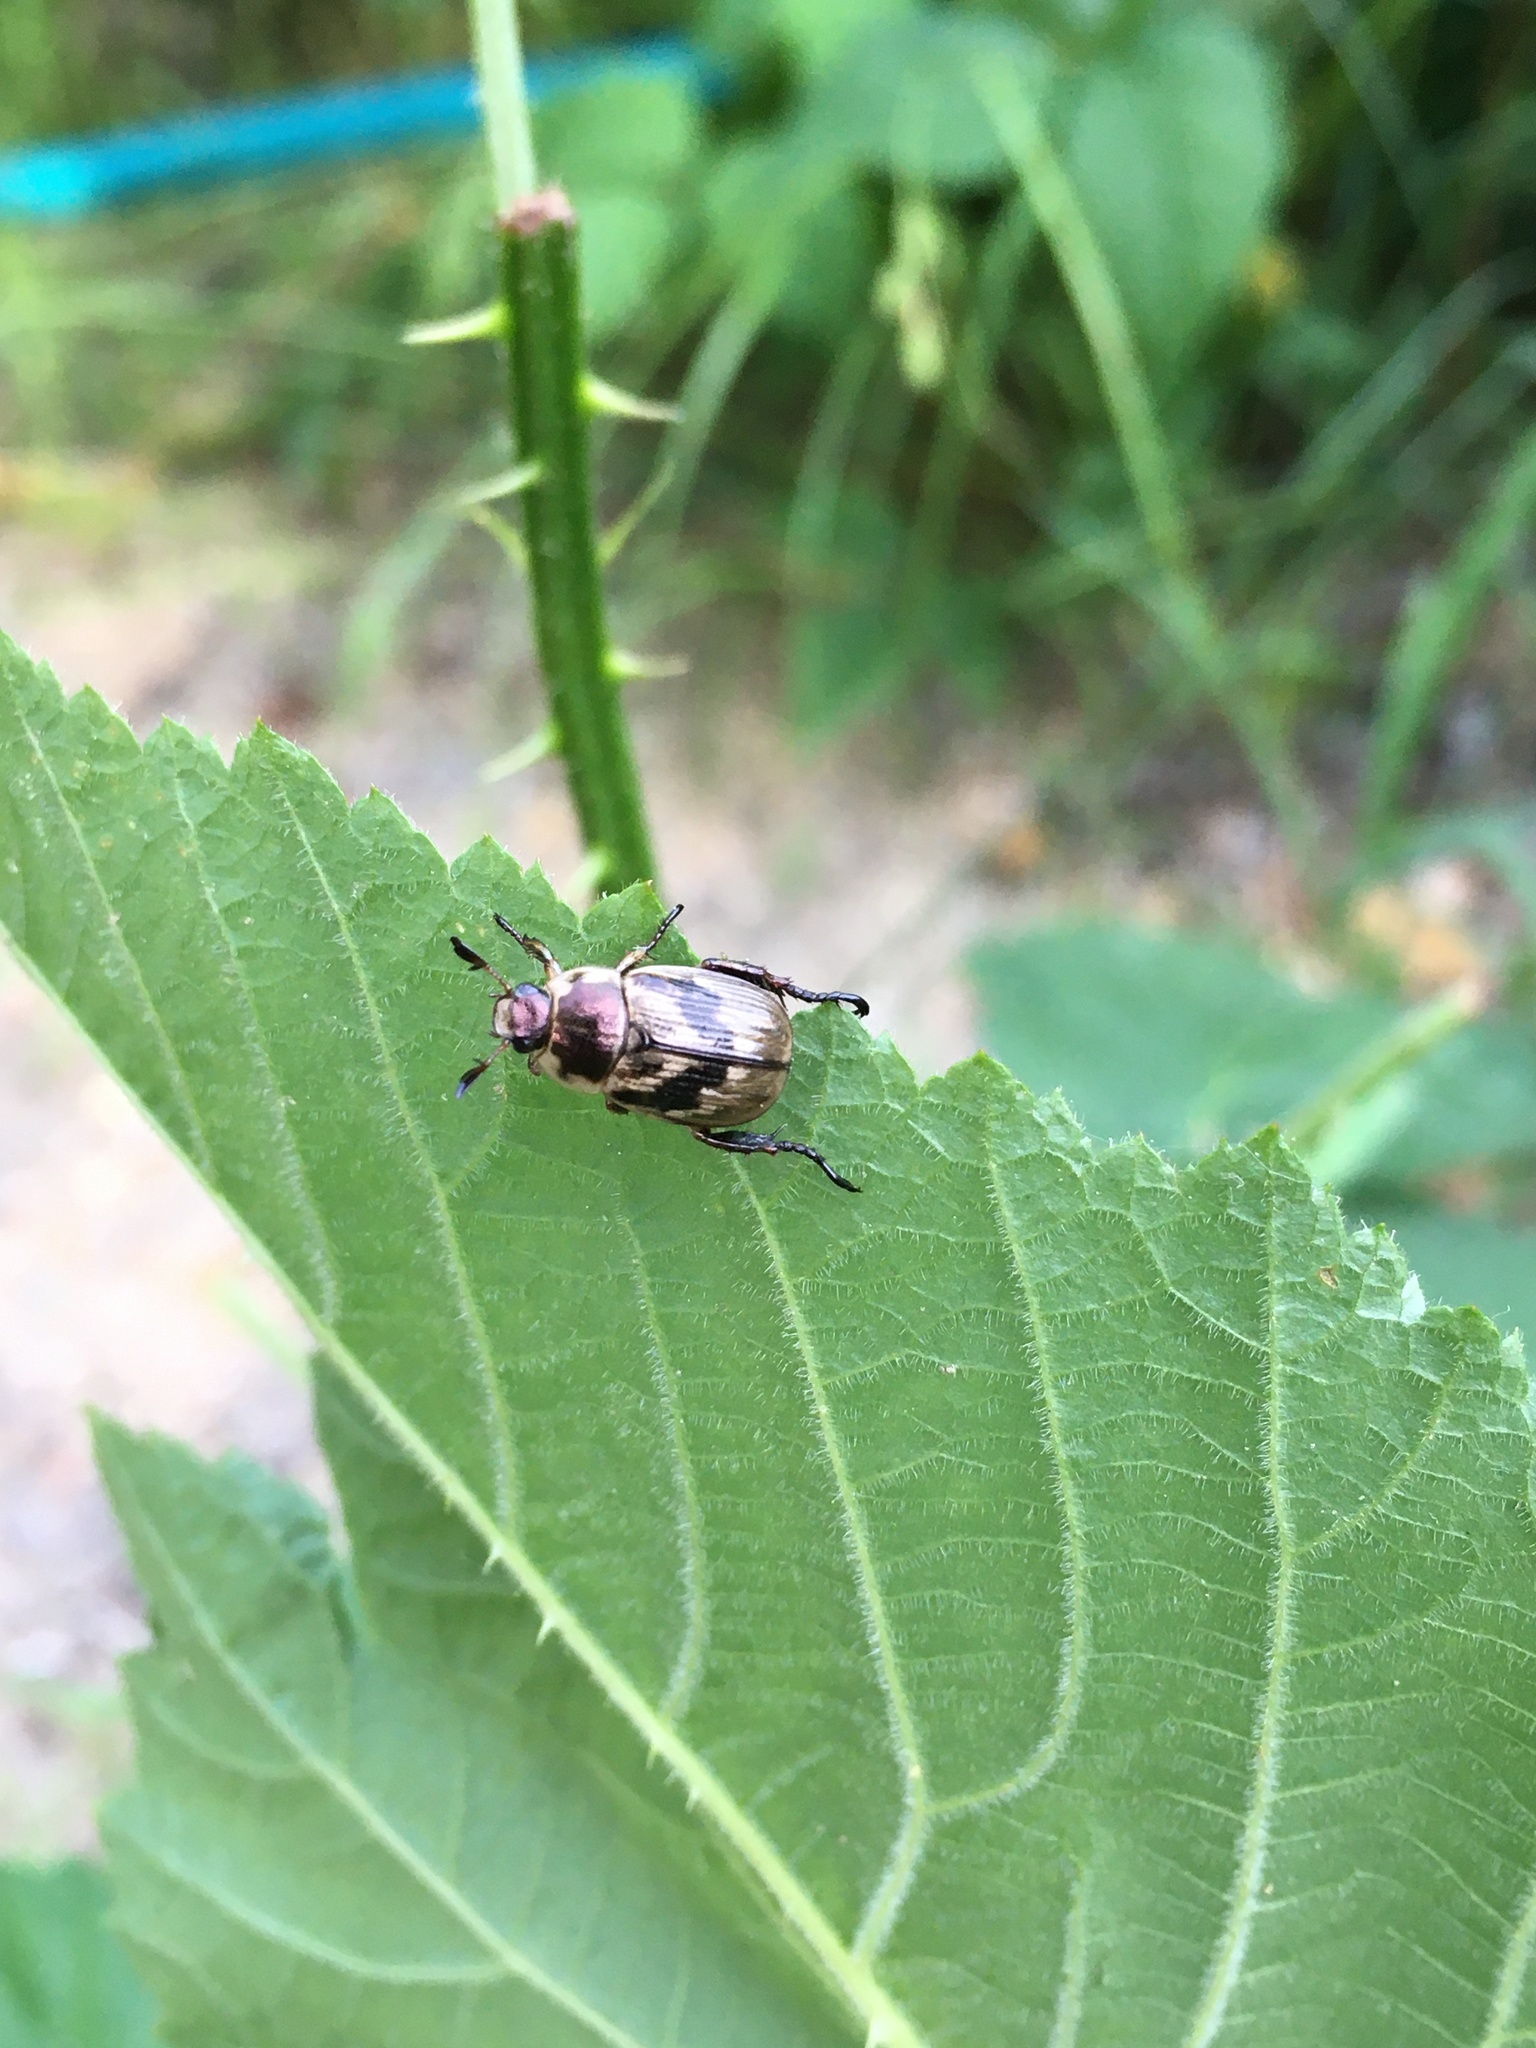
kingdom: Animalia
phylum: Arthropoda
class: Insecta
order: Coleoptera
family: Scarabaeidae
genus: Exomala
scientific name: Exomala orientalis
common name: Oriental beetle
